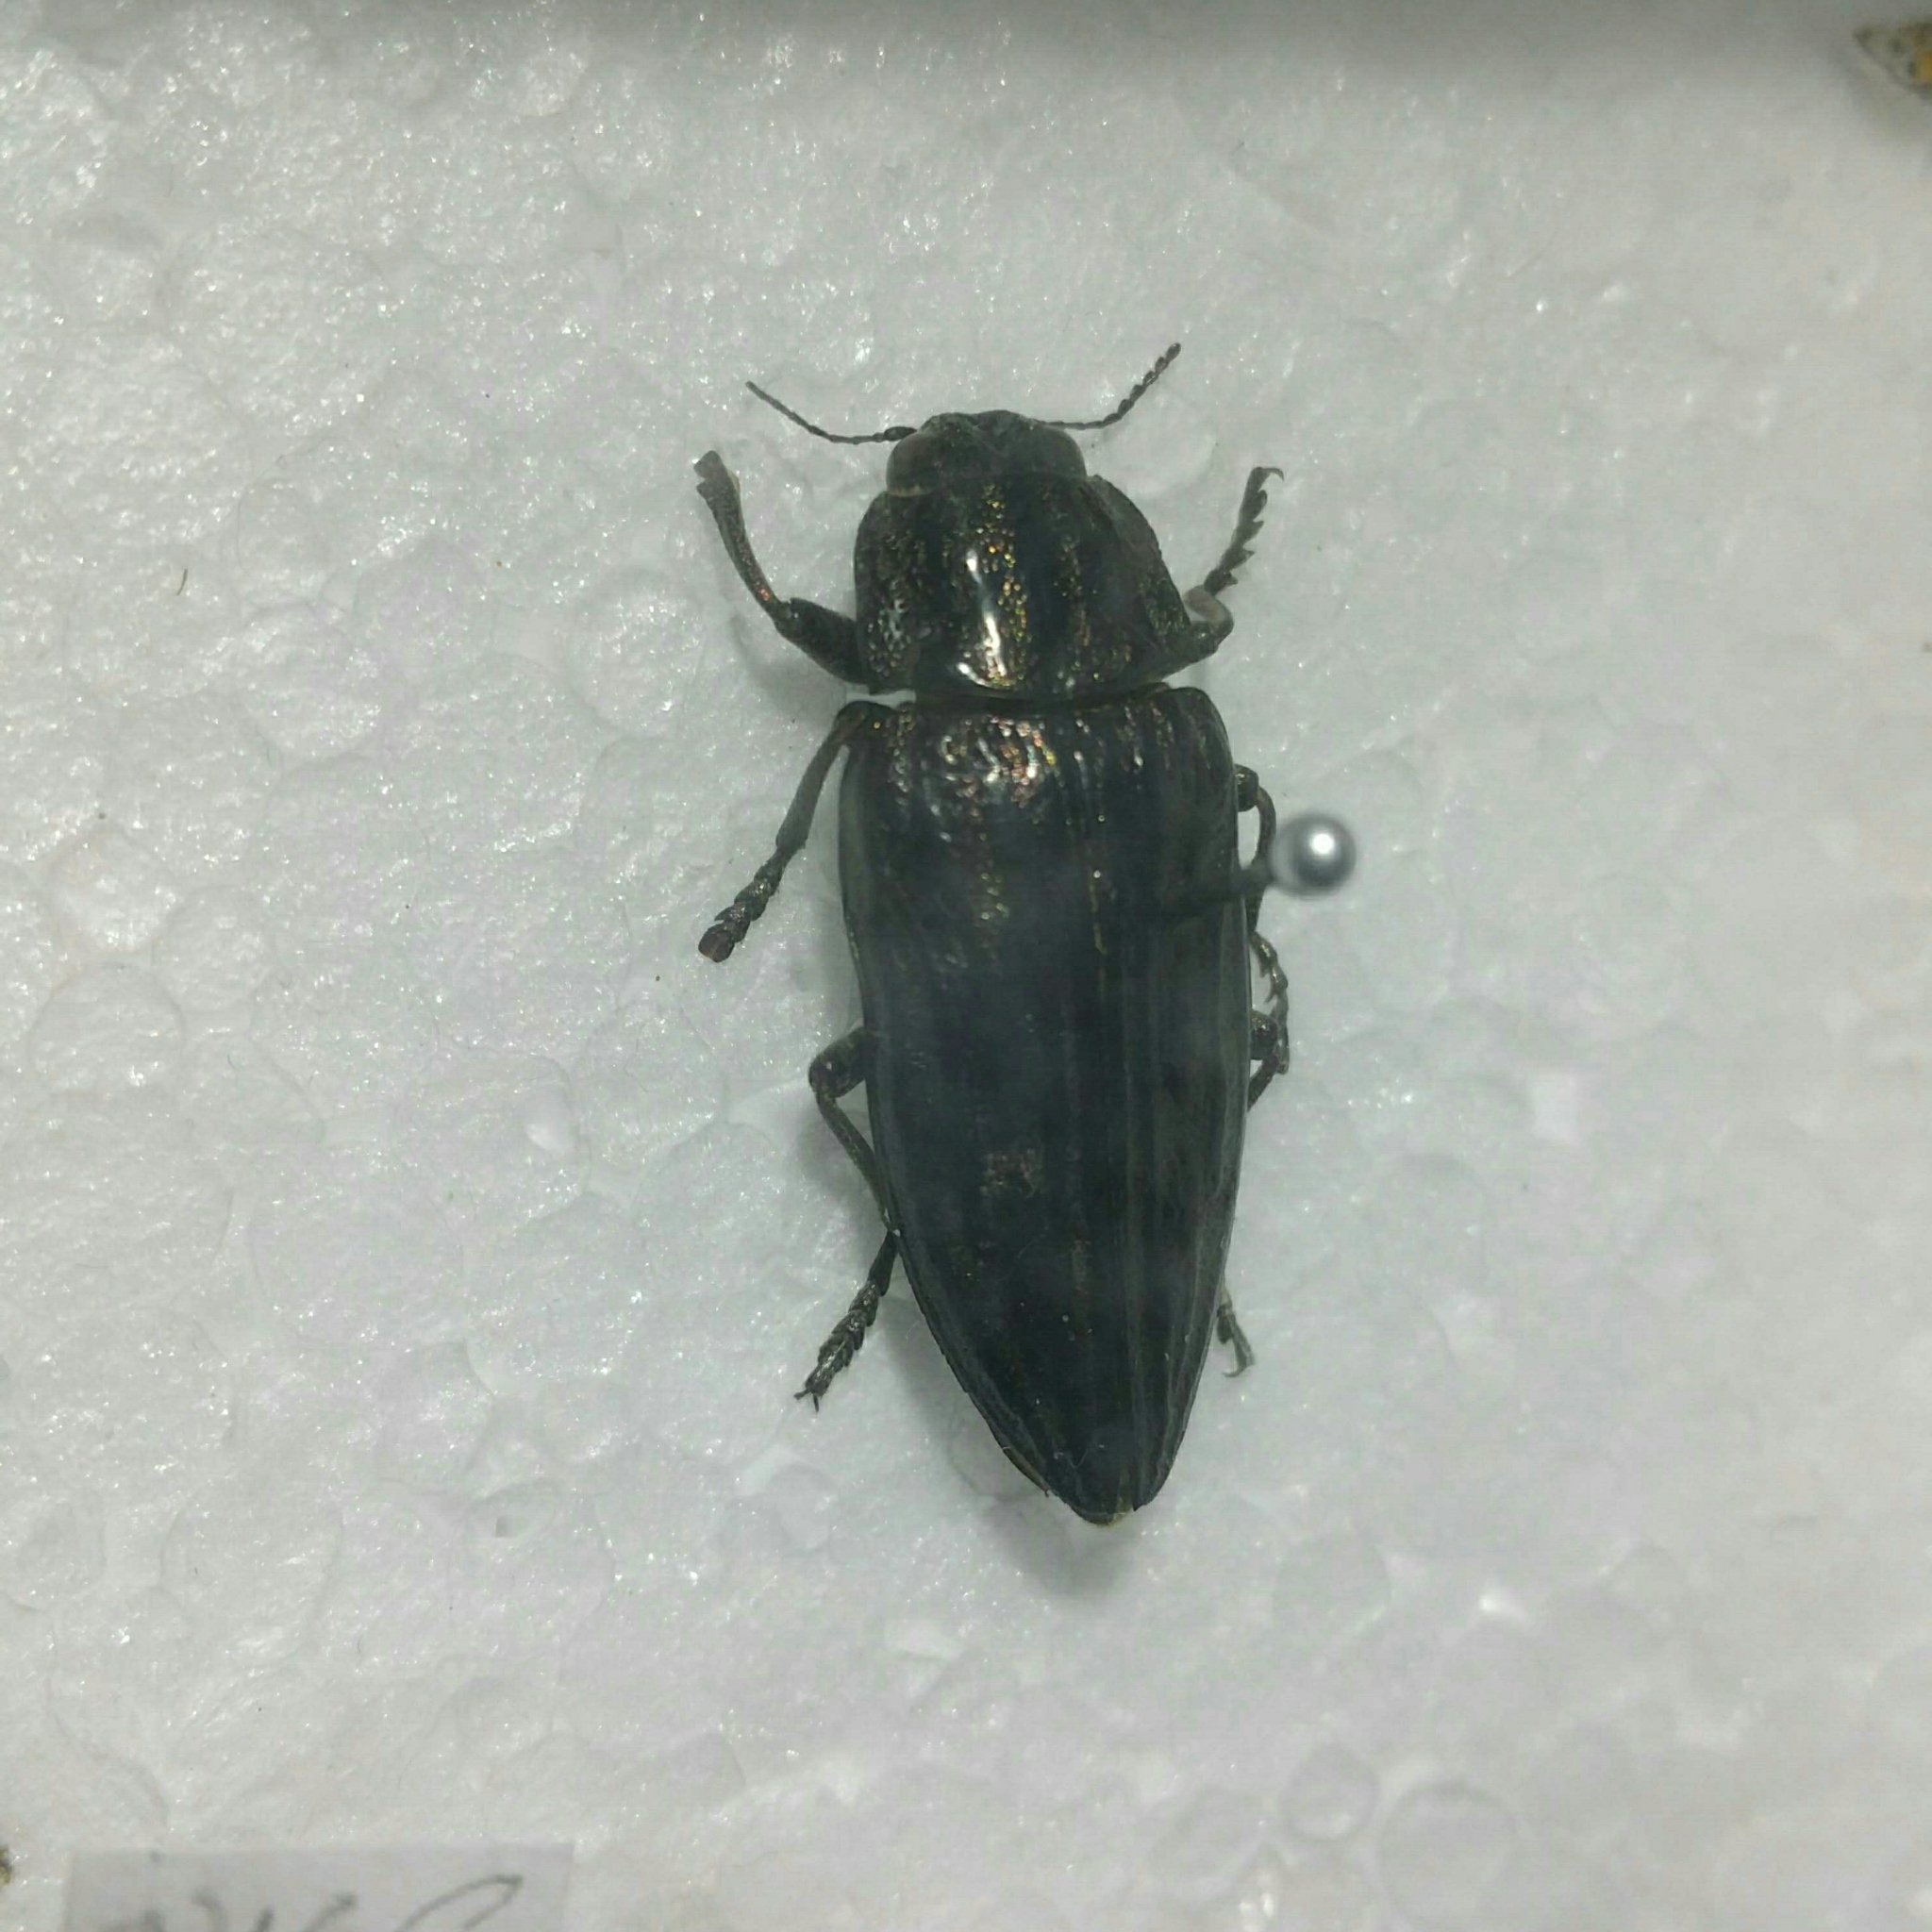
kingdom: Animalia
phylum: Arthropoda
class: Insecta
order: Coleoptera
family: Buprestidae
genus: Chalcophora
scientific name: Chalcophora mariana
